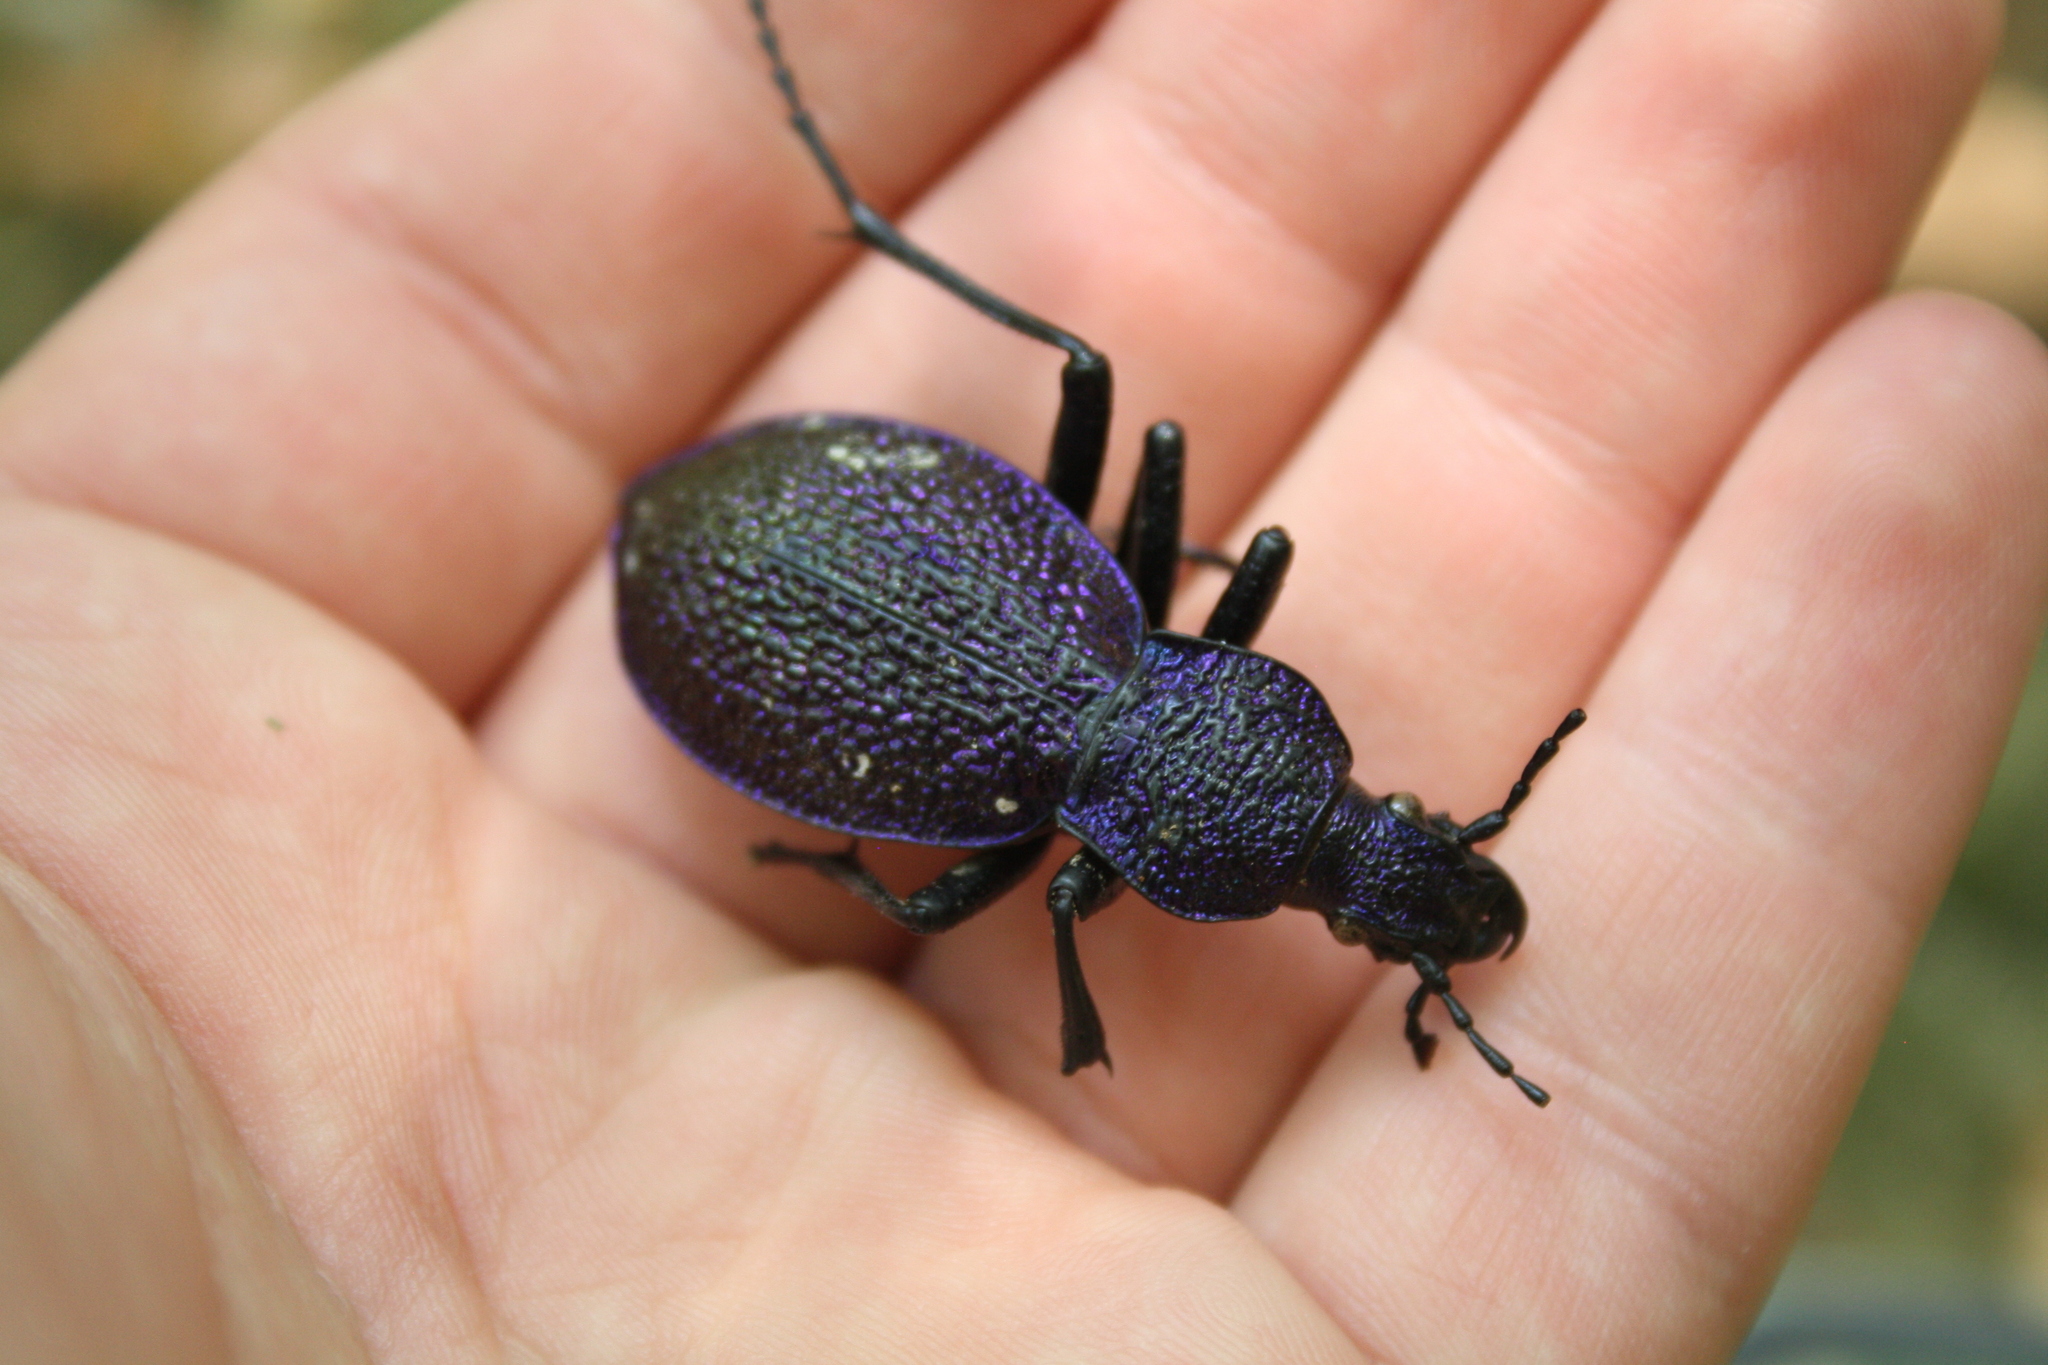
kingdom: Animalia
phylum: Arthropoda
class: Insecta
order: Coleoptera
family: Carabidae
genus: Carabus
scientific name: Carabus scabrosus
